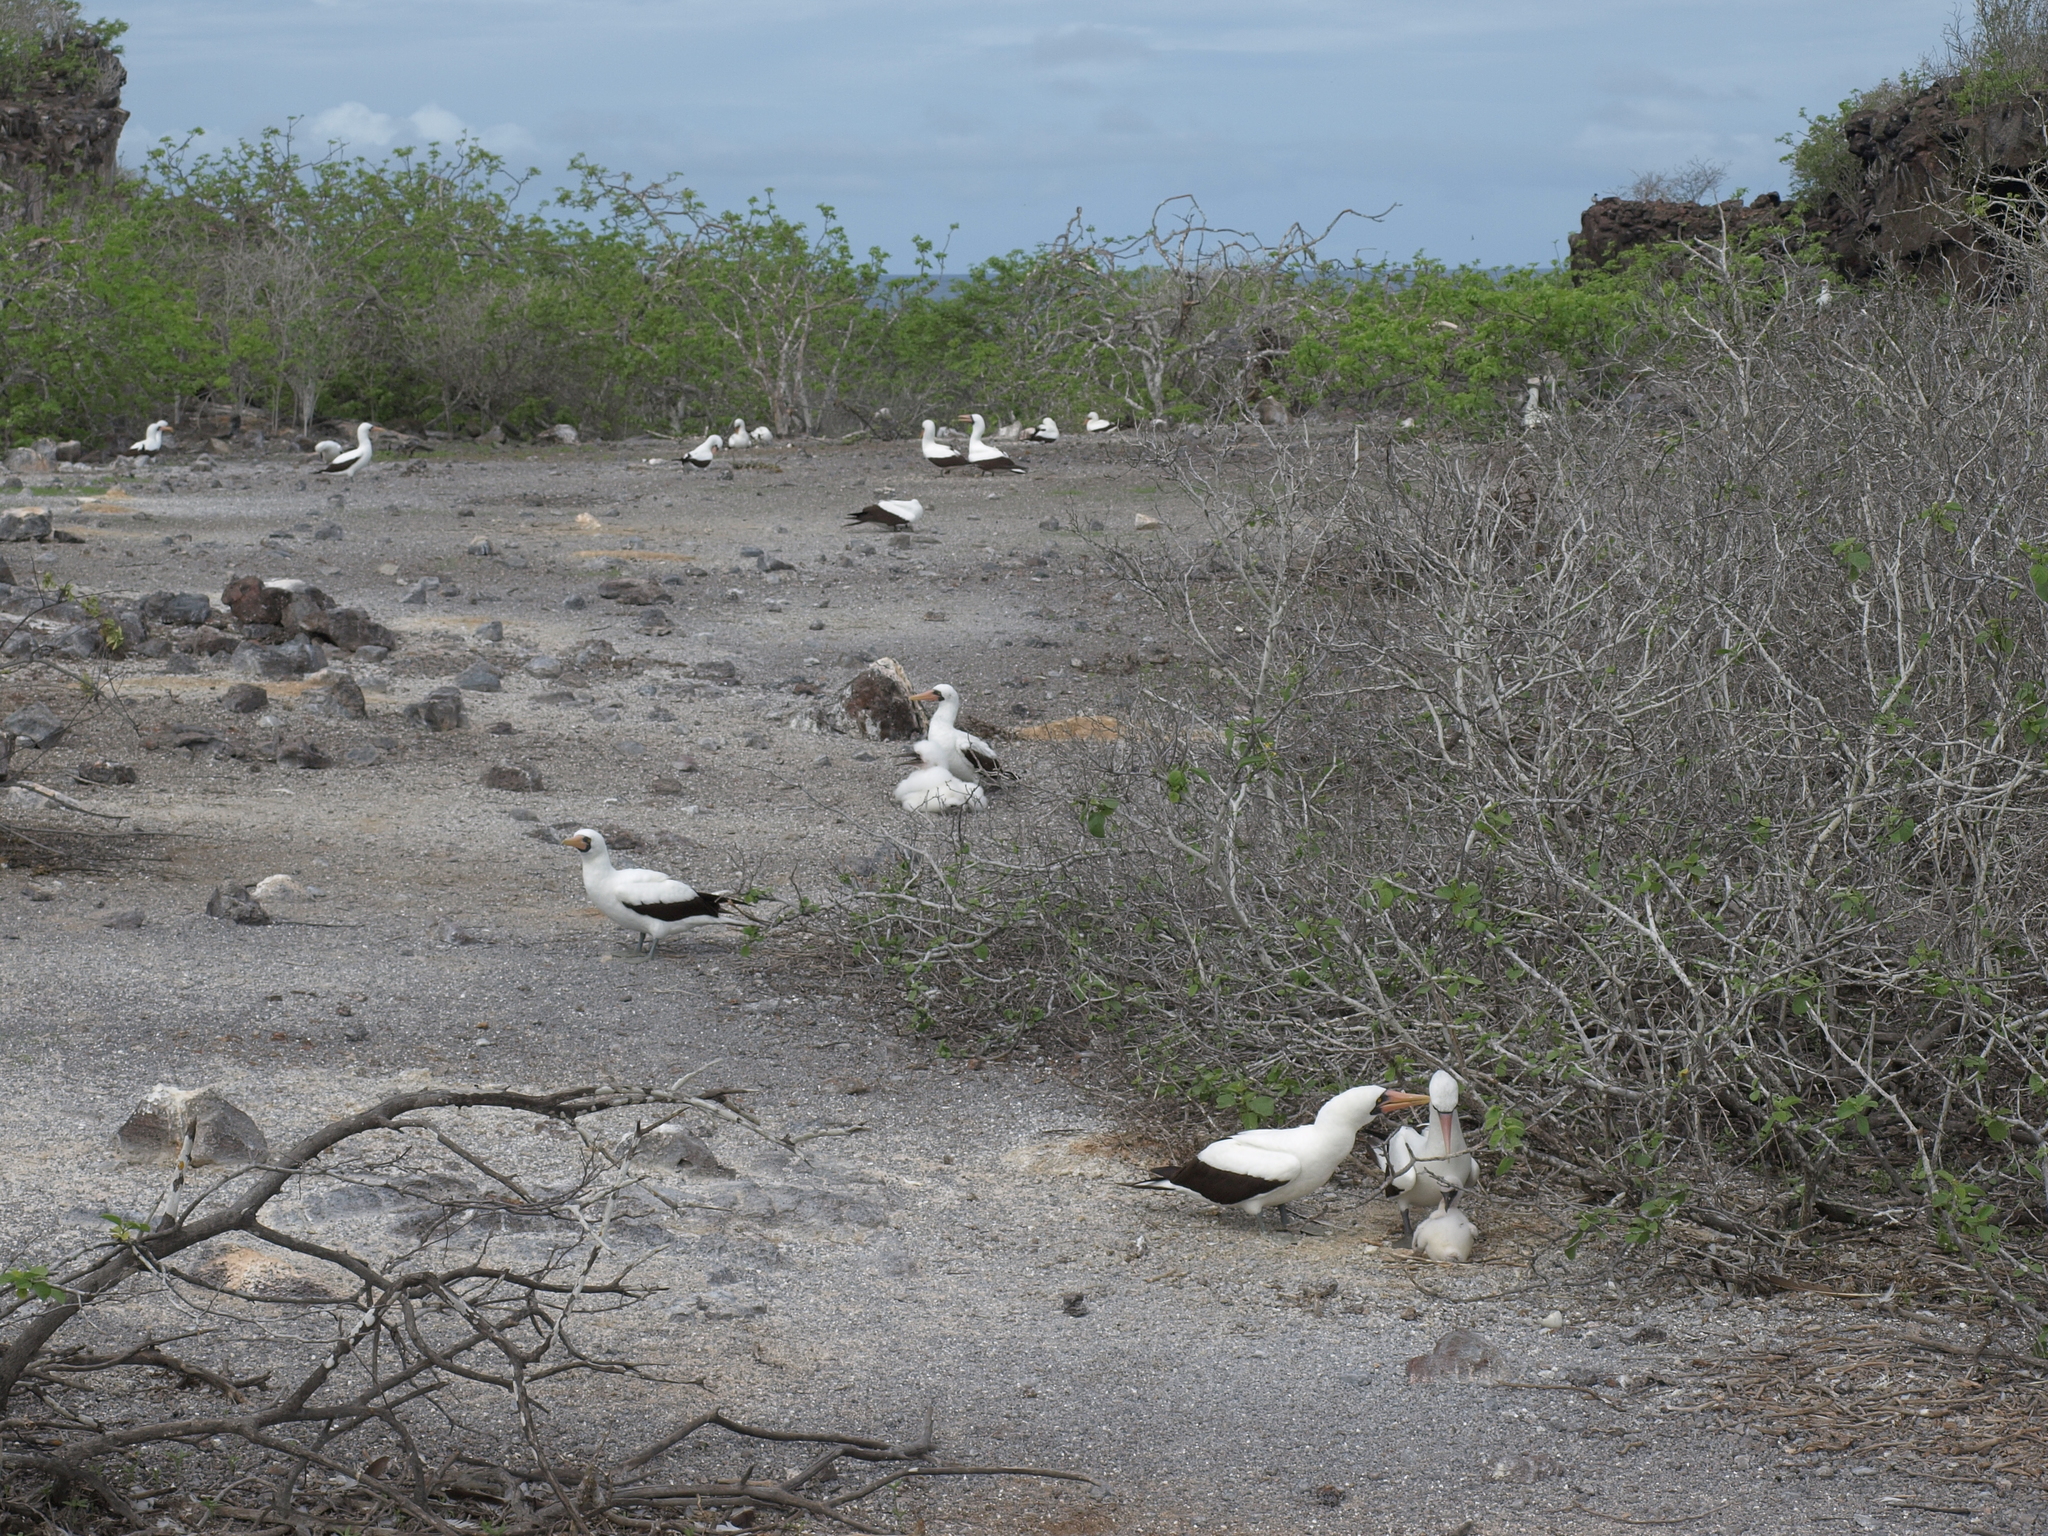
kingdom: Animalia
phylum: Chordata
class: Aves
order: Suliformes
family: Sulidae
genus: Sula
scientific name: Sula granti
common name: Nazca booby
